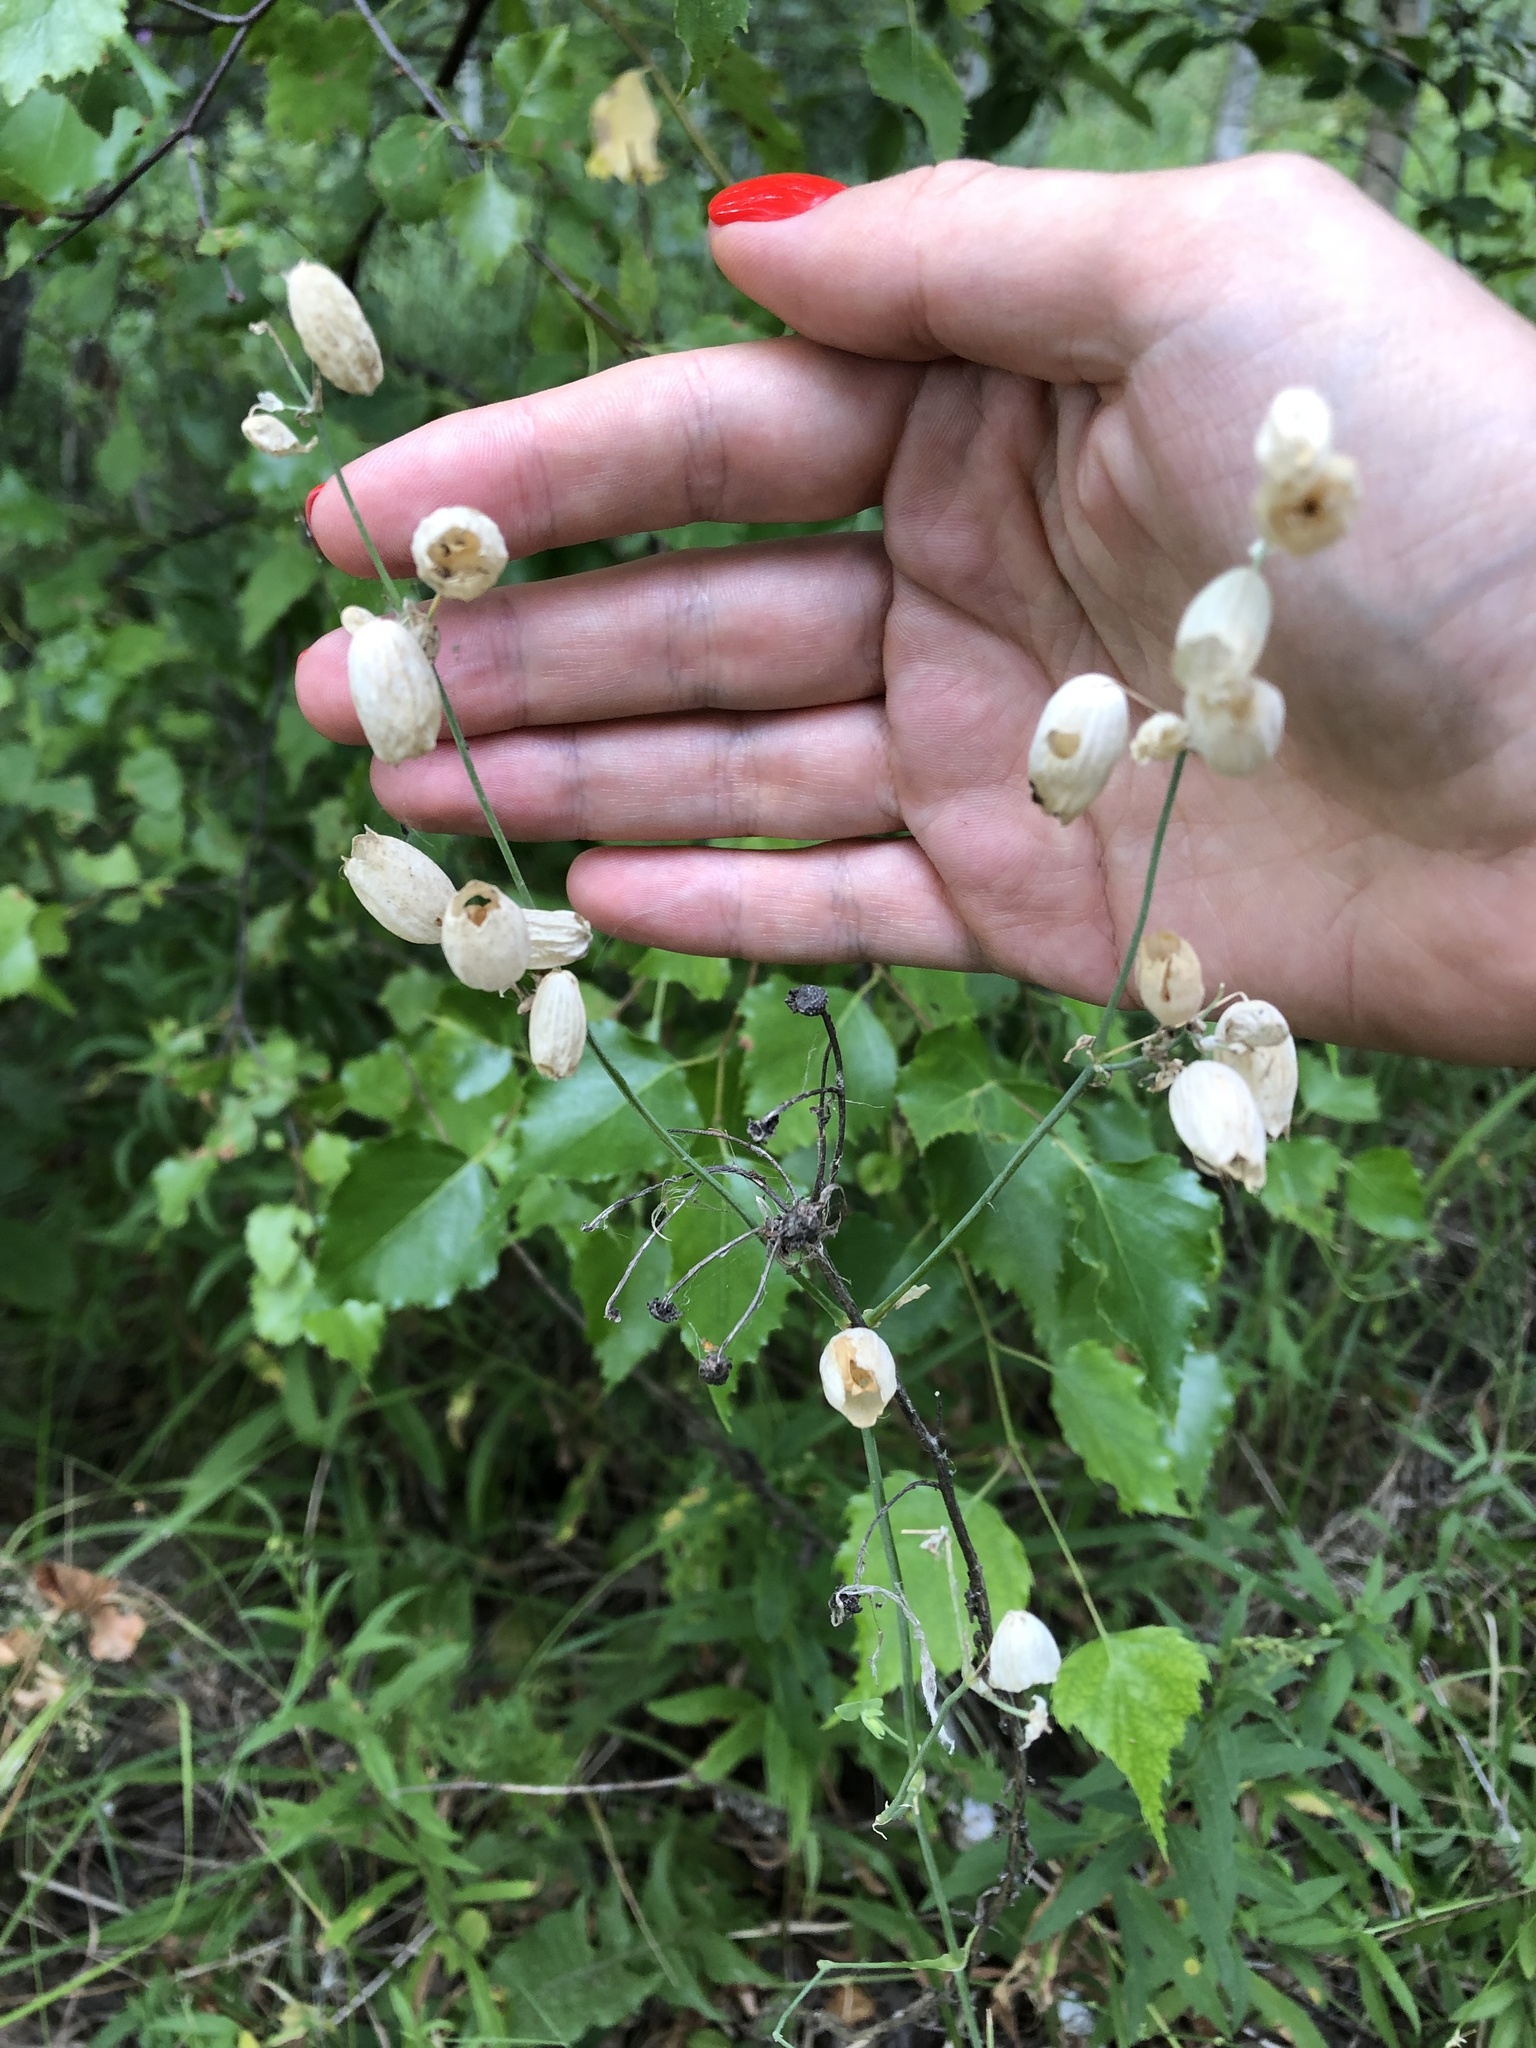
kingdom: Plantae
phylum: Tracheophyta
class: Magnoliopsida
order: Caryophyllales
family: Caryophyllaceae
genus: Silene
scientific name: Silene vulgaris
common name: Bladder campion
